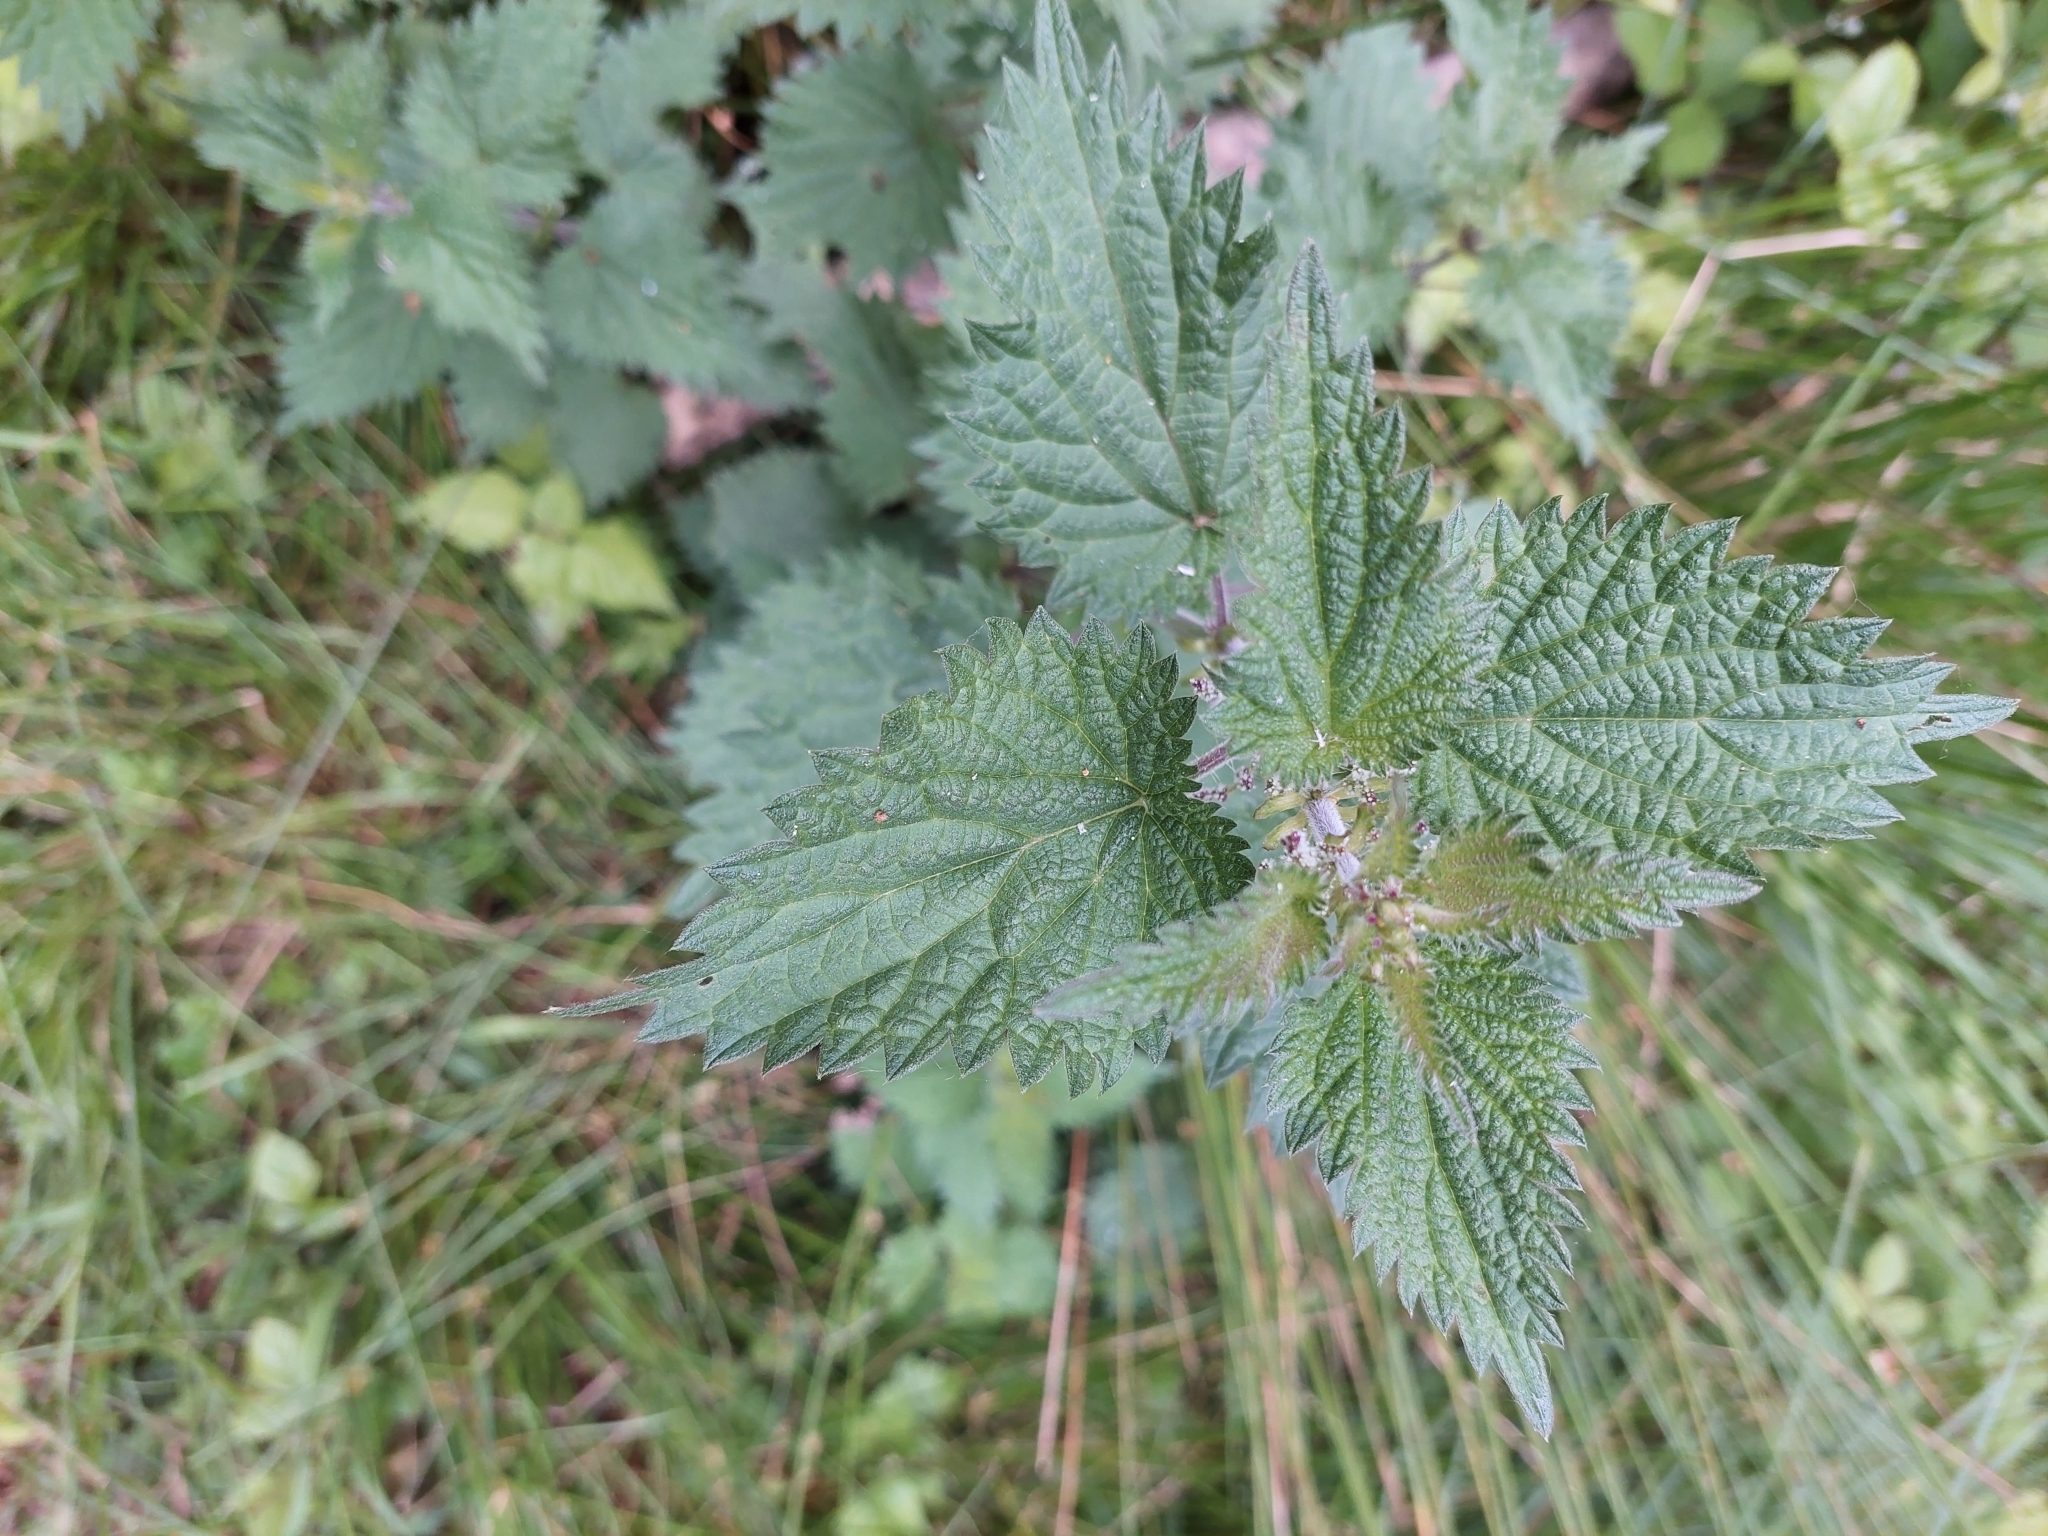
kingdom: Plantae
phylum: Tracheophyta
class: Magnoliopsida
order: Rosales
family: Urticaceae
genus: Urtica
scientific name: Urtica dioica
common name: Common nettle
